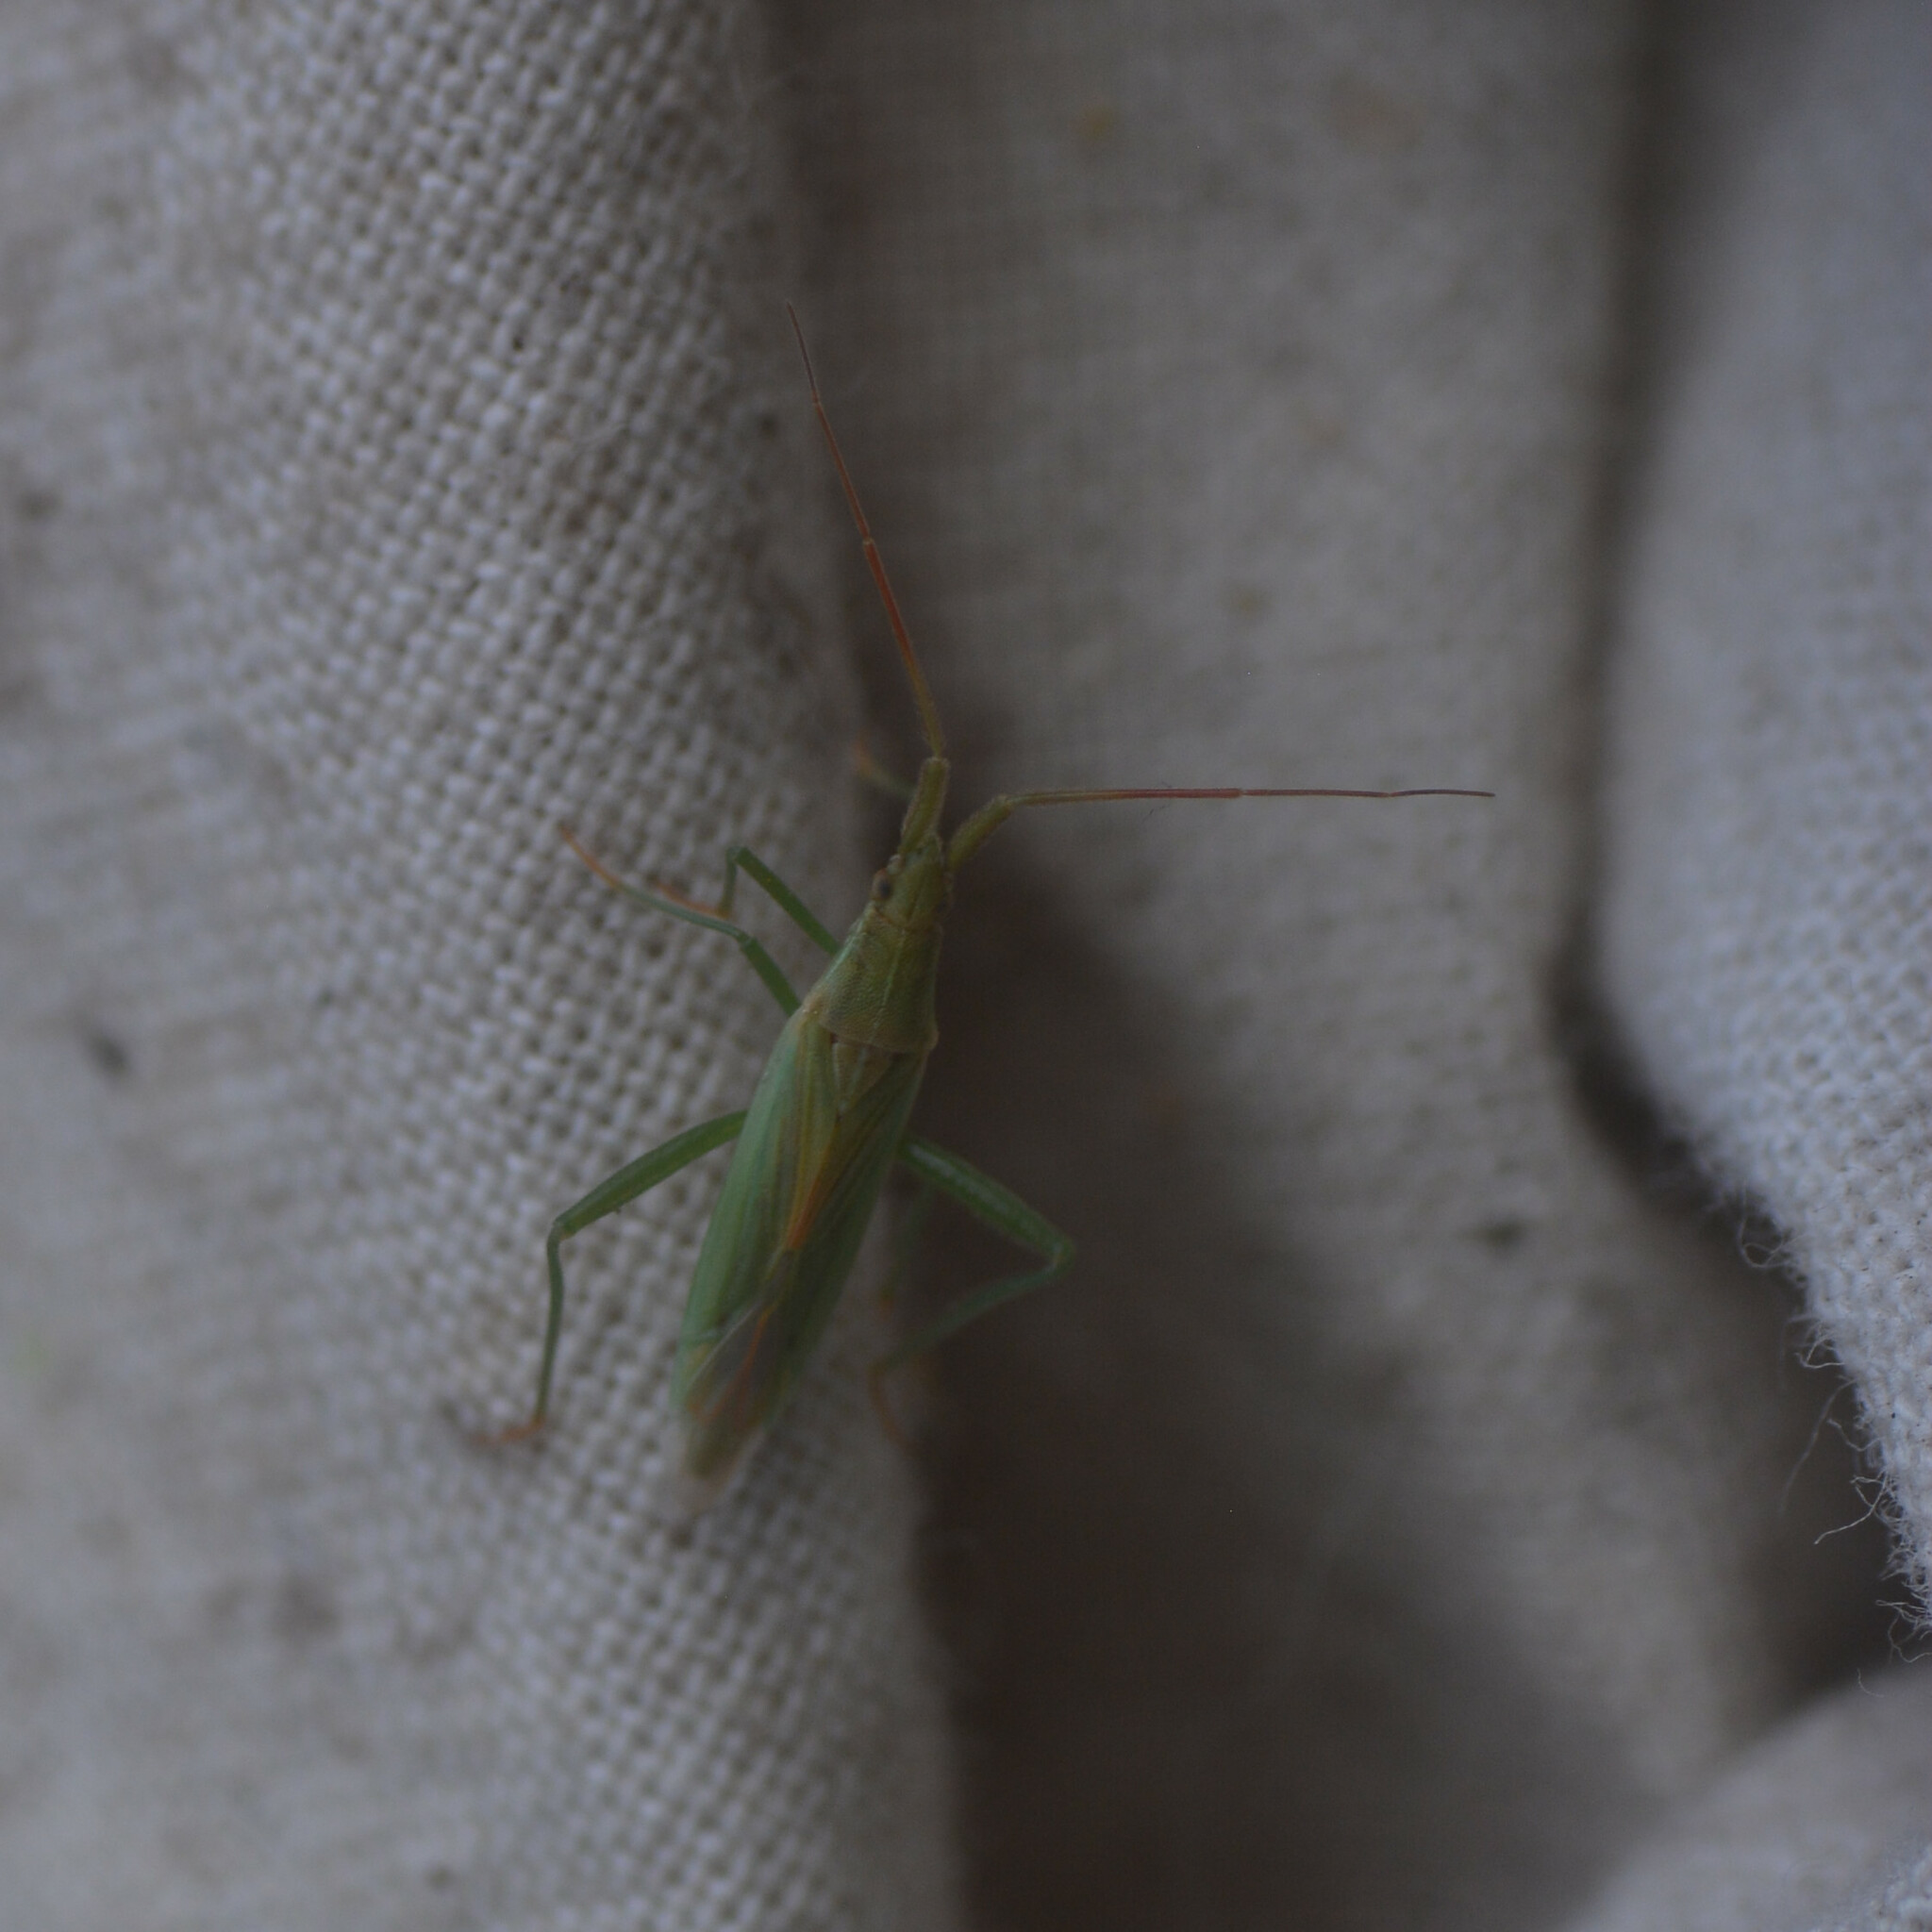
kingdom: Animalia
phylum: Arthropoda
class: Insecta
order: Hemiptera
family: Miridae
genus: Stenodema
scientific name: Stenodema laevigata
